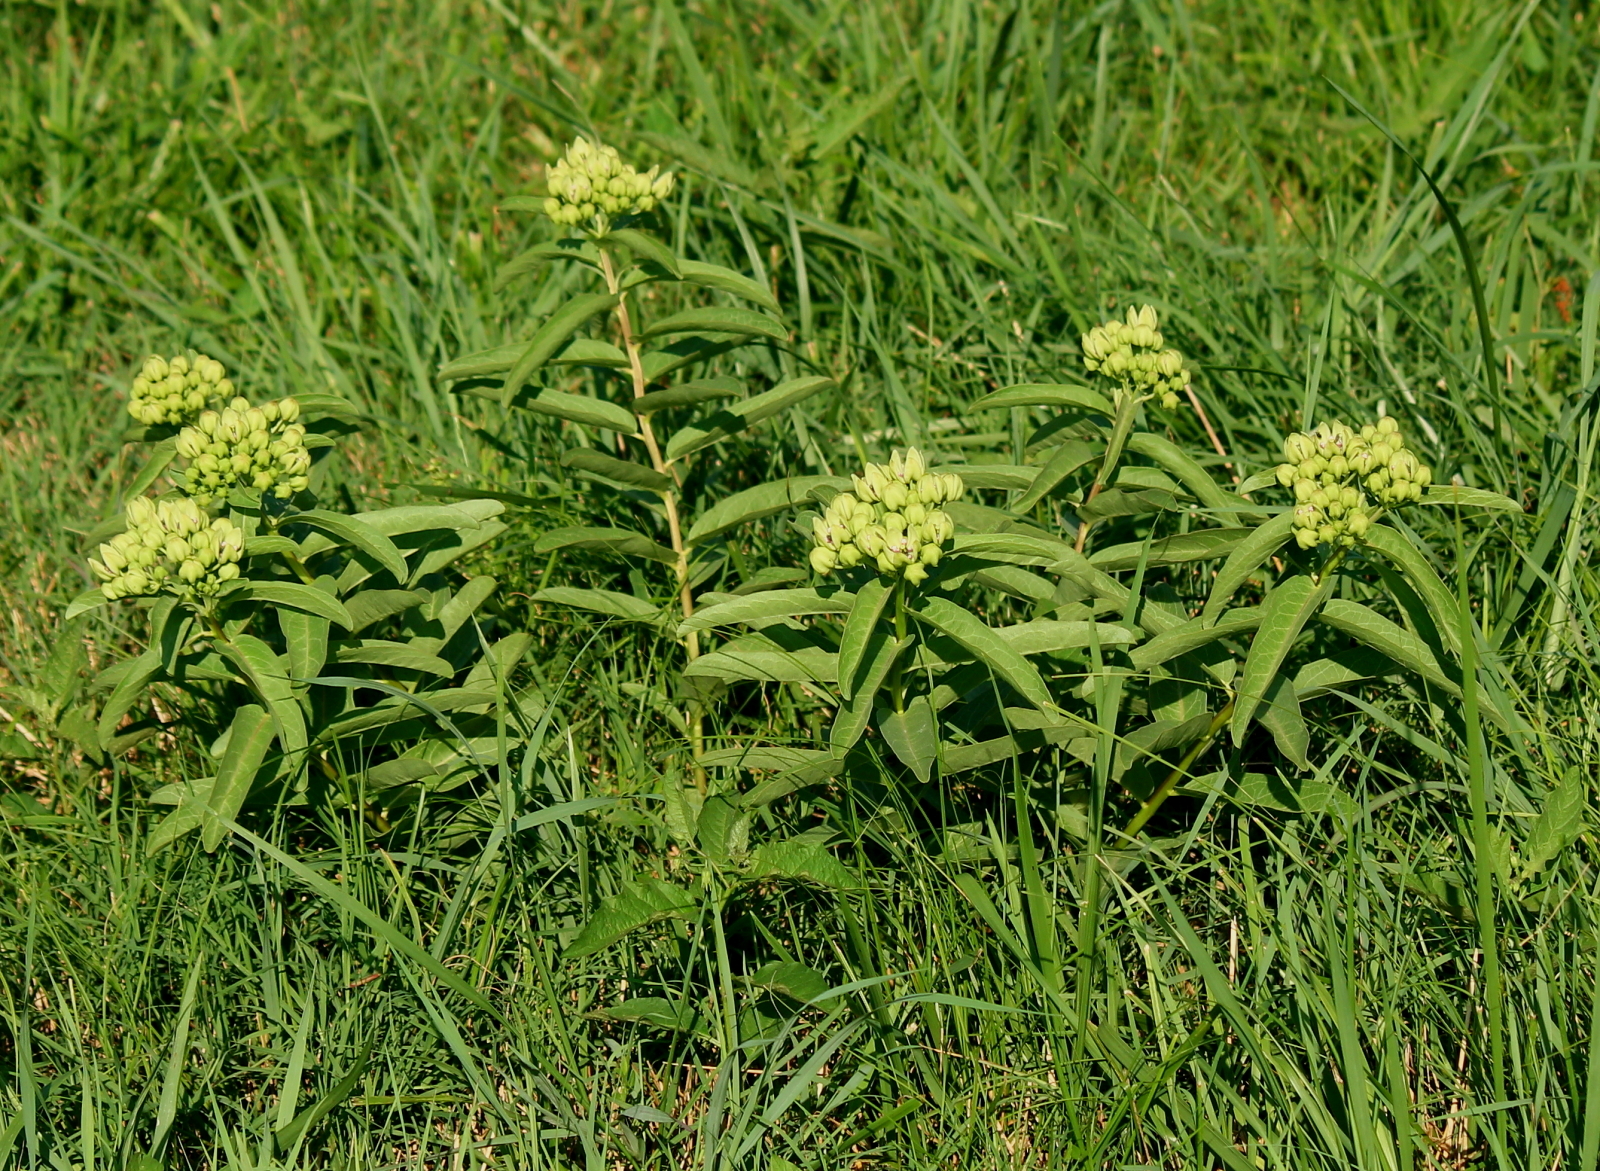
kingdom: Plantae
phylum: Tracheophyta
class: Magnoliopsida
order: Gentianales
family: Apocynaceae
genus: Asclepias
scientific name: Asclepias viridis
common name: Antelope-horns
